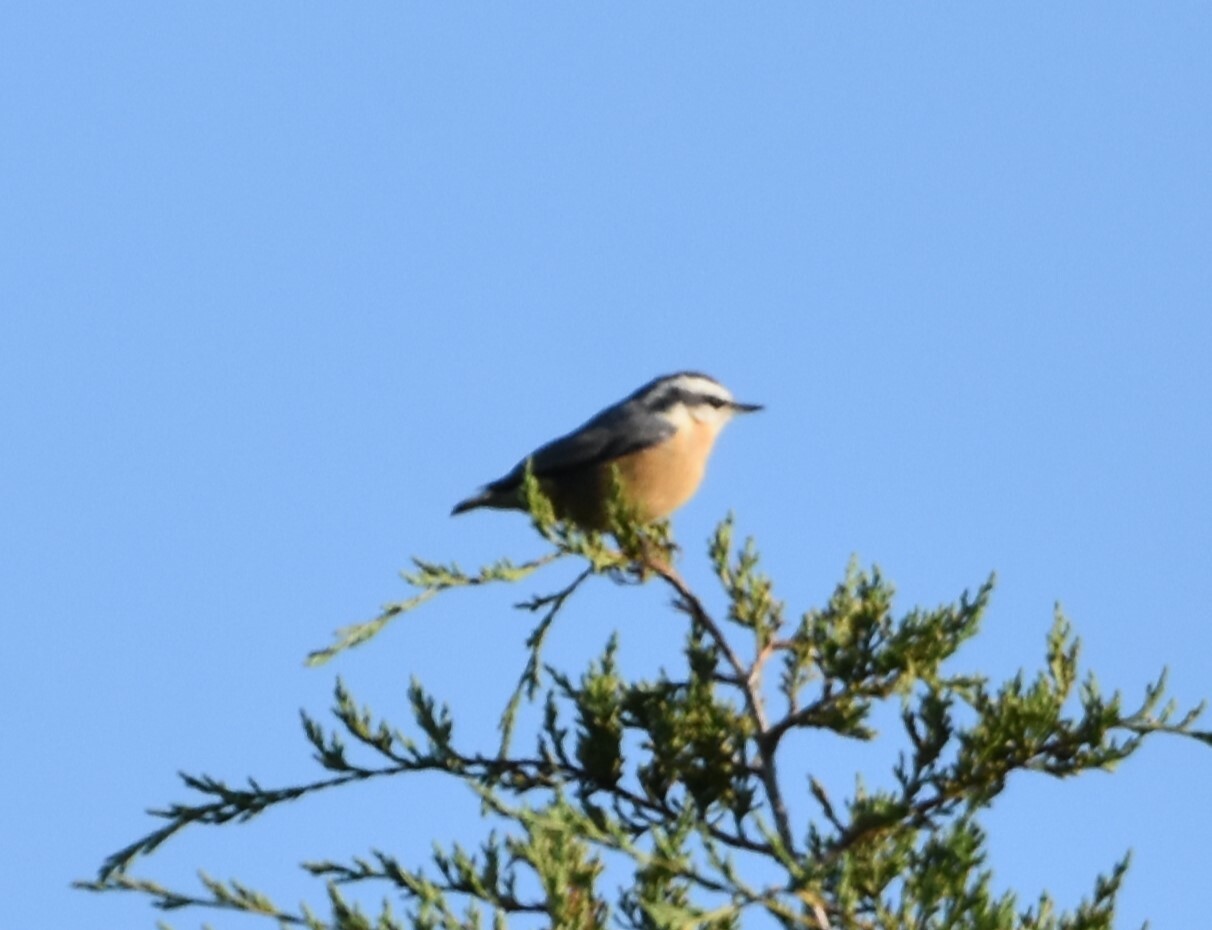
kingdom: Animalia
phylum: Chordata
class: Aves
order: Passeriformes
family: Sittidae
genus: Sitta
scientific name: Sitta canadensis
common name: Red-breasted nuthatch
